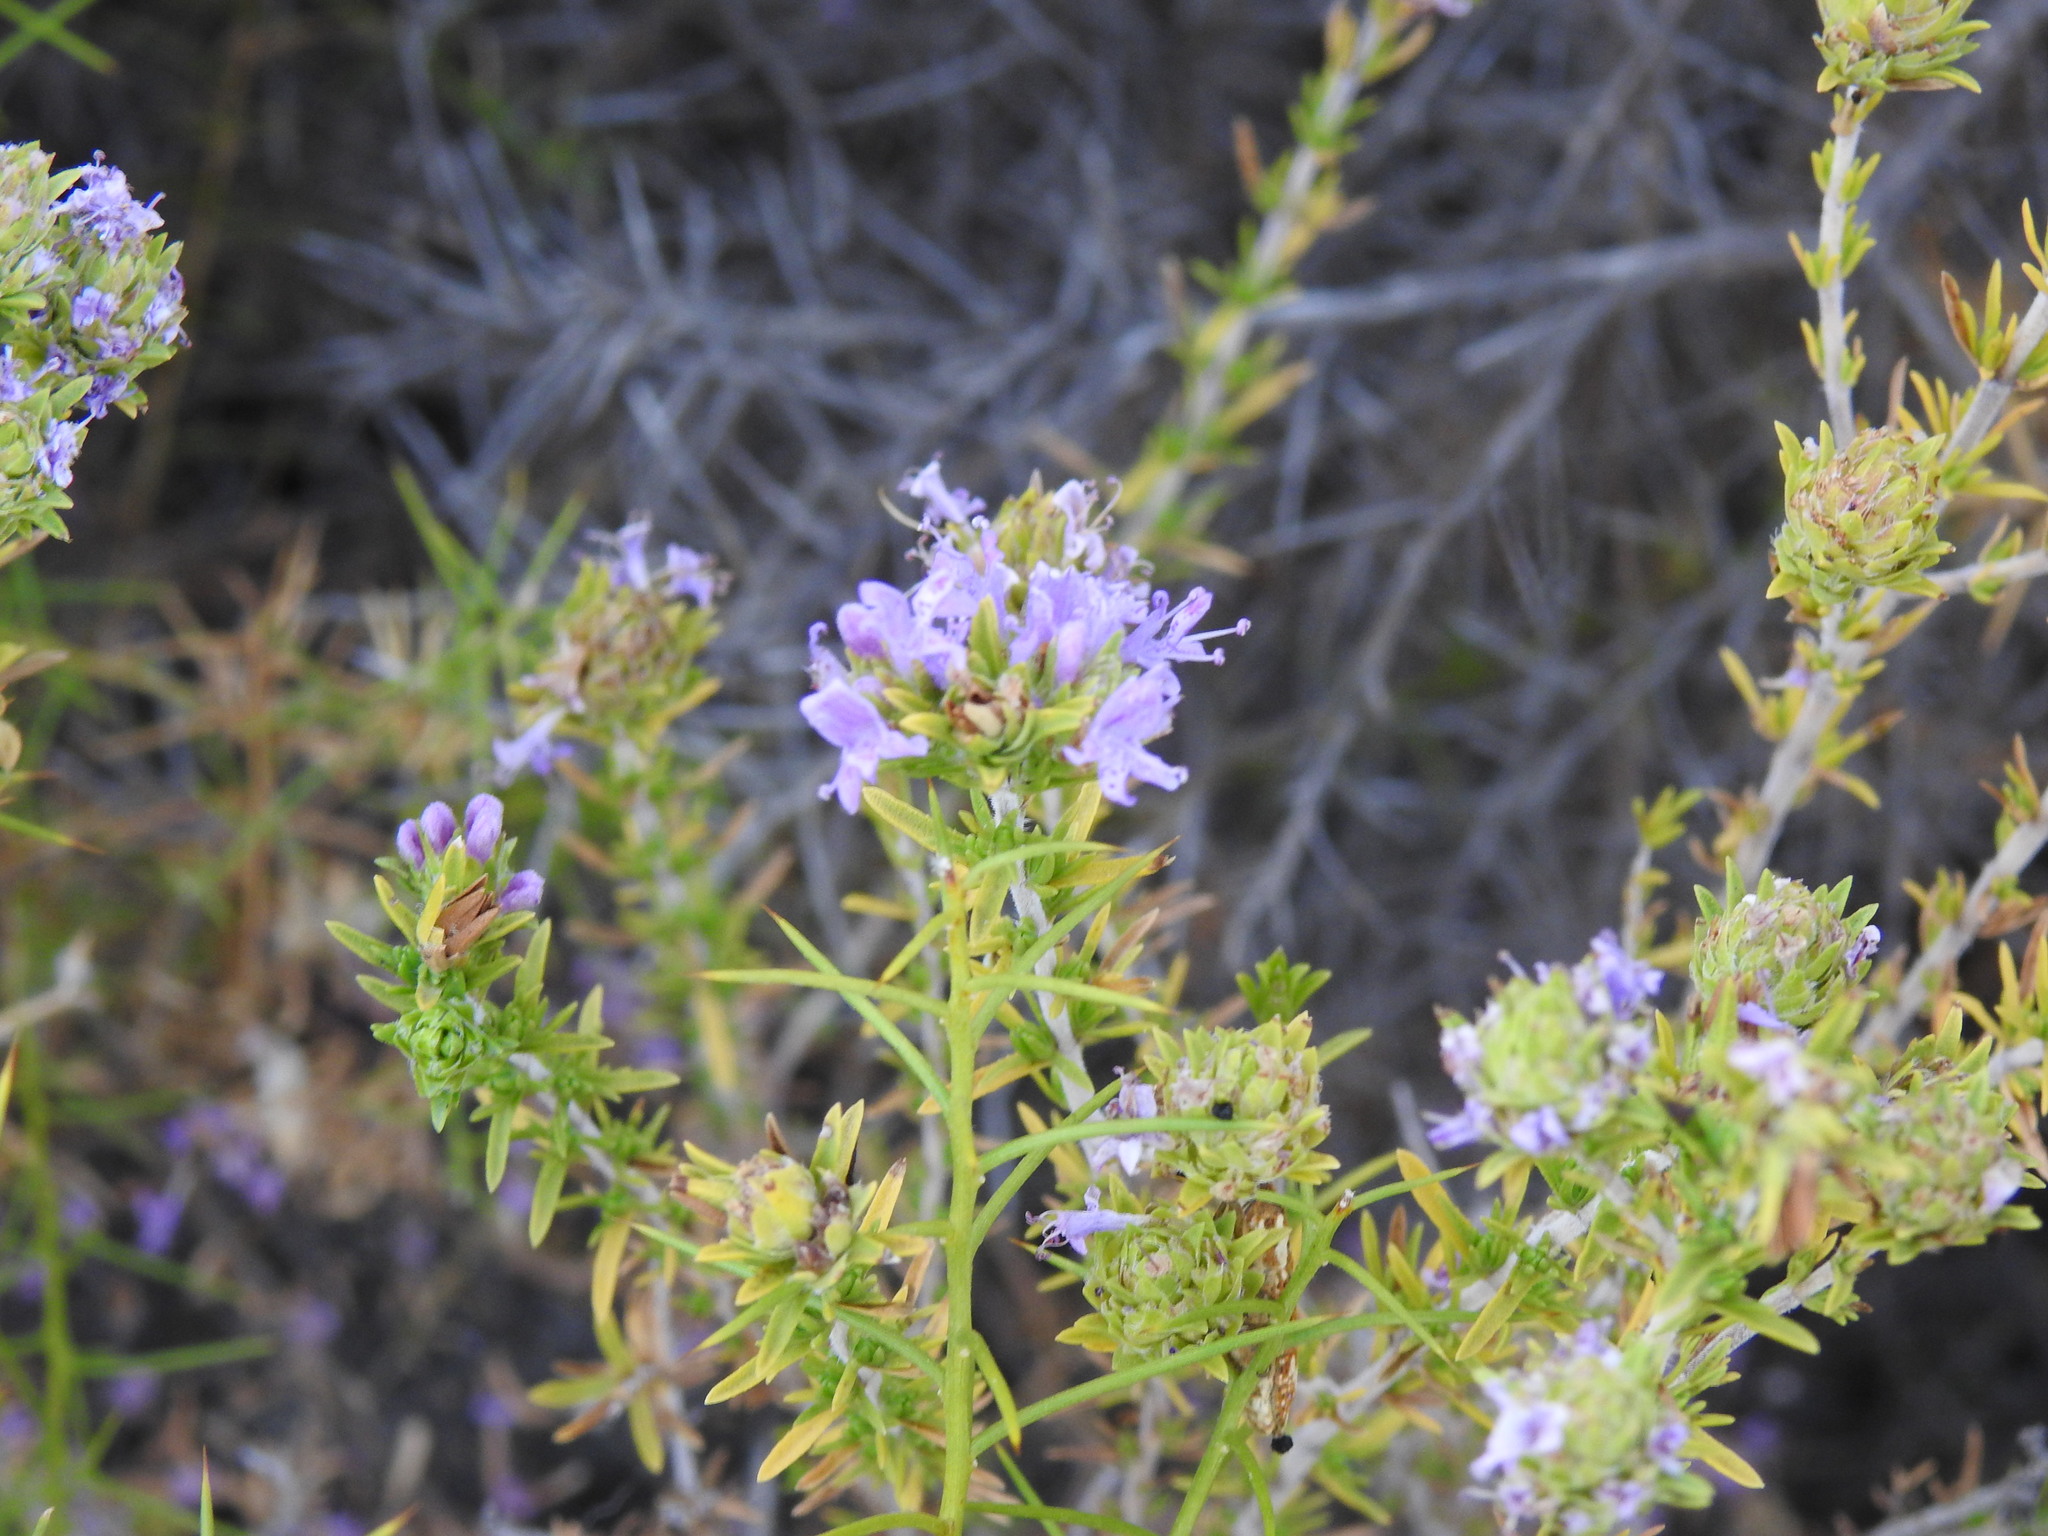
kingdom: Plantae
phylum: Tracheophyta
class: Magnoliopsida
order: Lamiales
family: Lamiaceae
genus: Thymbra
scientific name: Thymbra capitata
